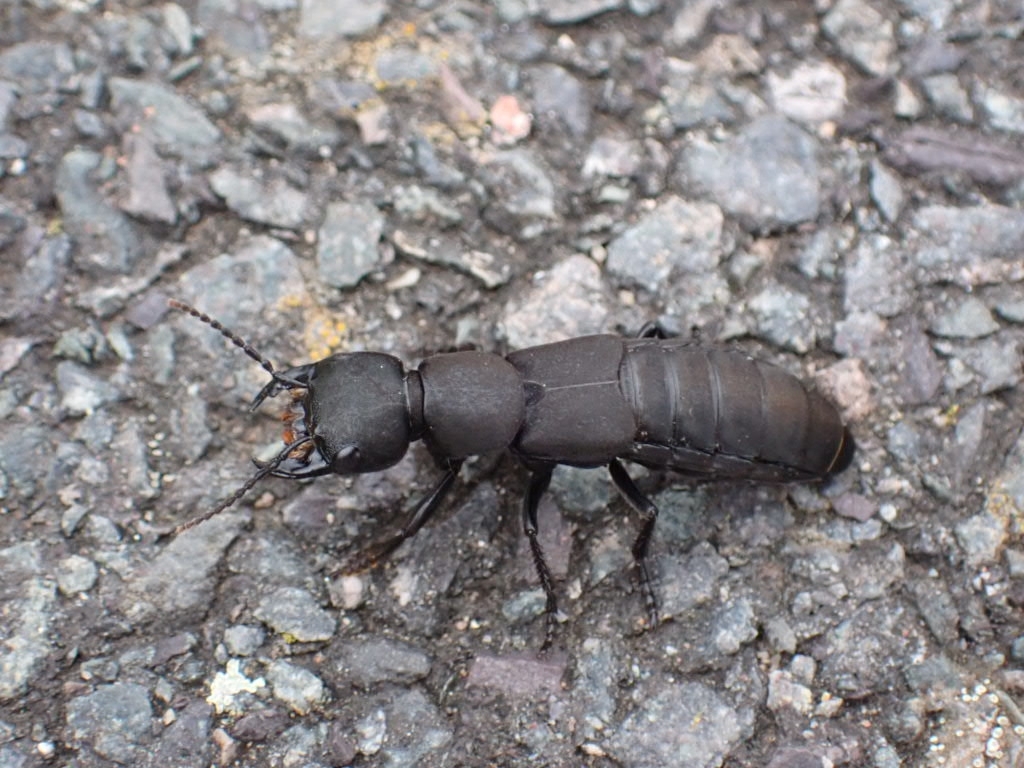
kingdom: Animalia
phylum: Arthropoda
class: Insecta
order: Coleoptera
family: Staphylinidae
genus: Ocypus
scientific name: Ocypus olens
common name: Devil's coach-horse
